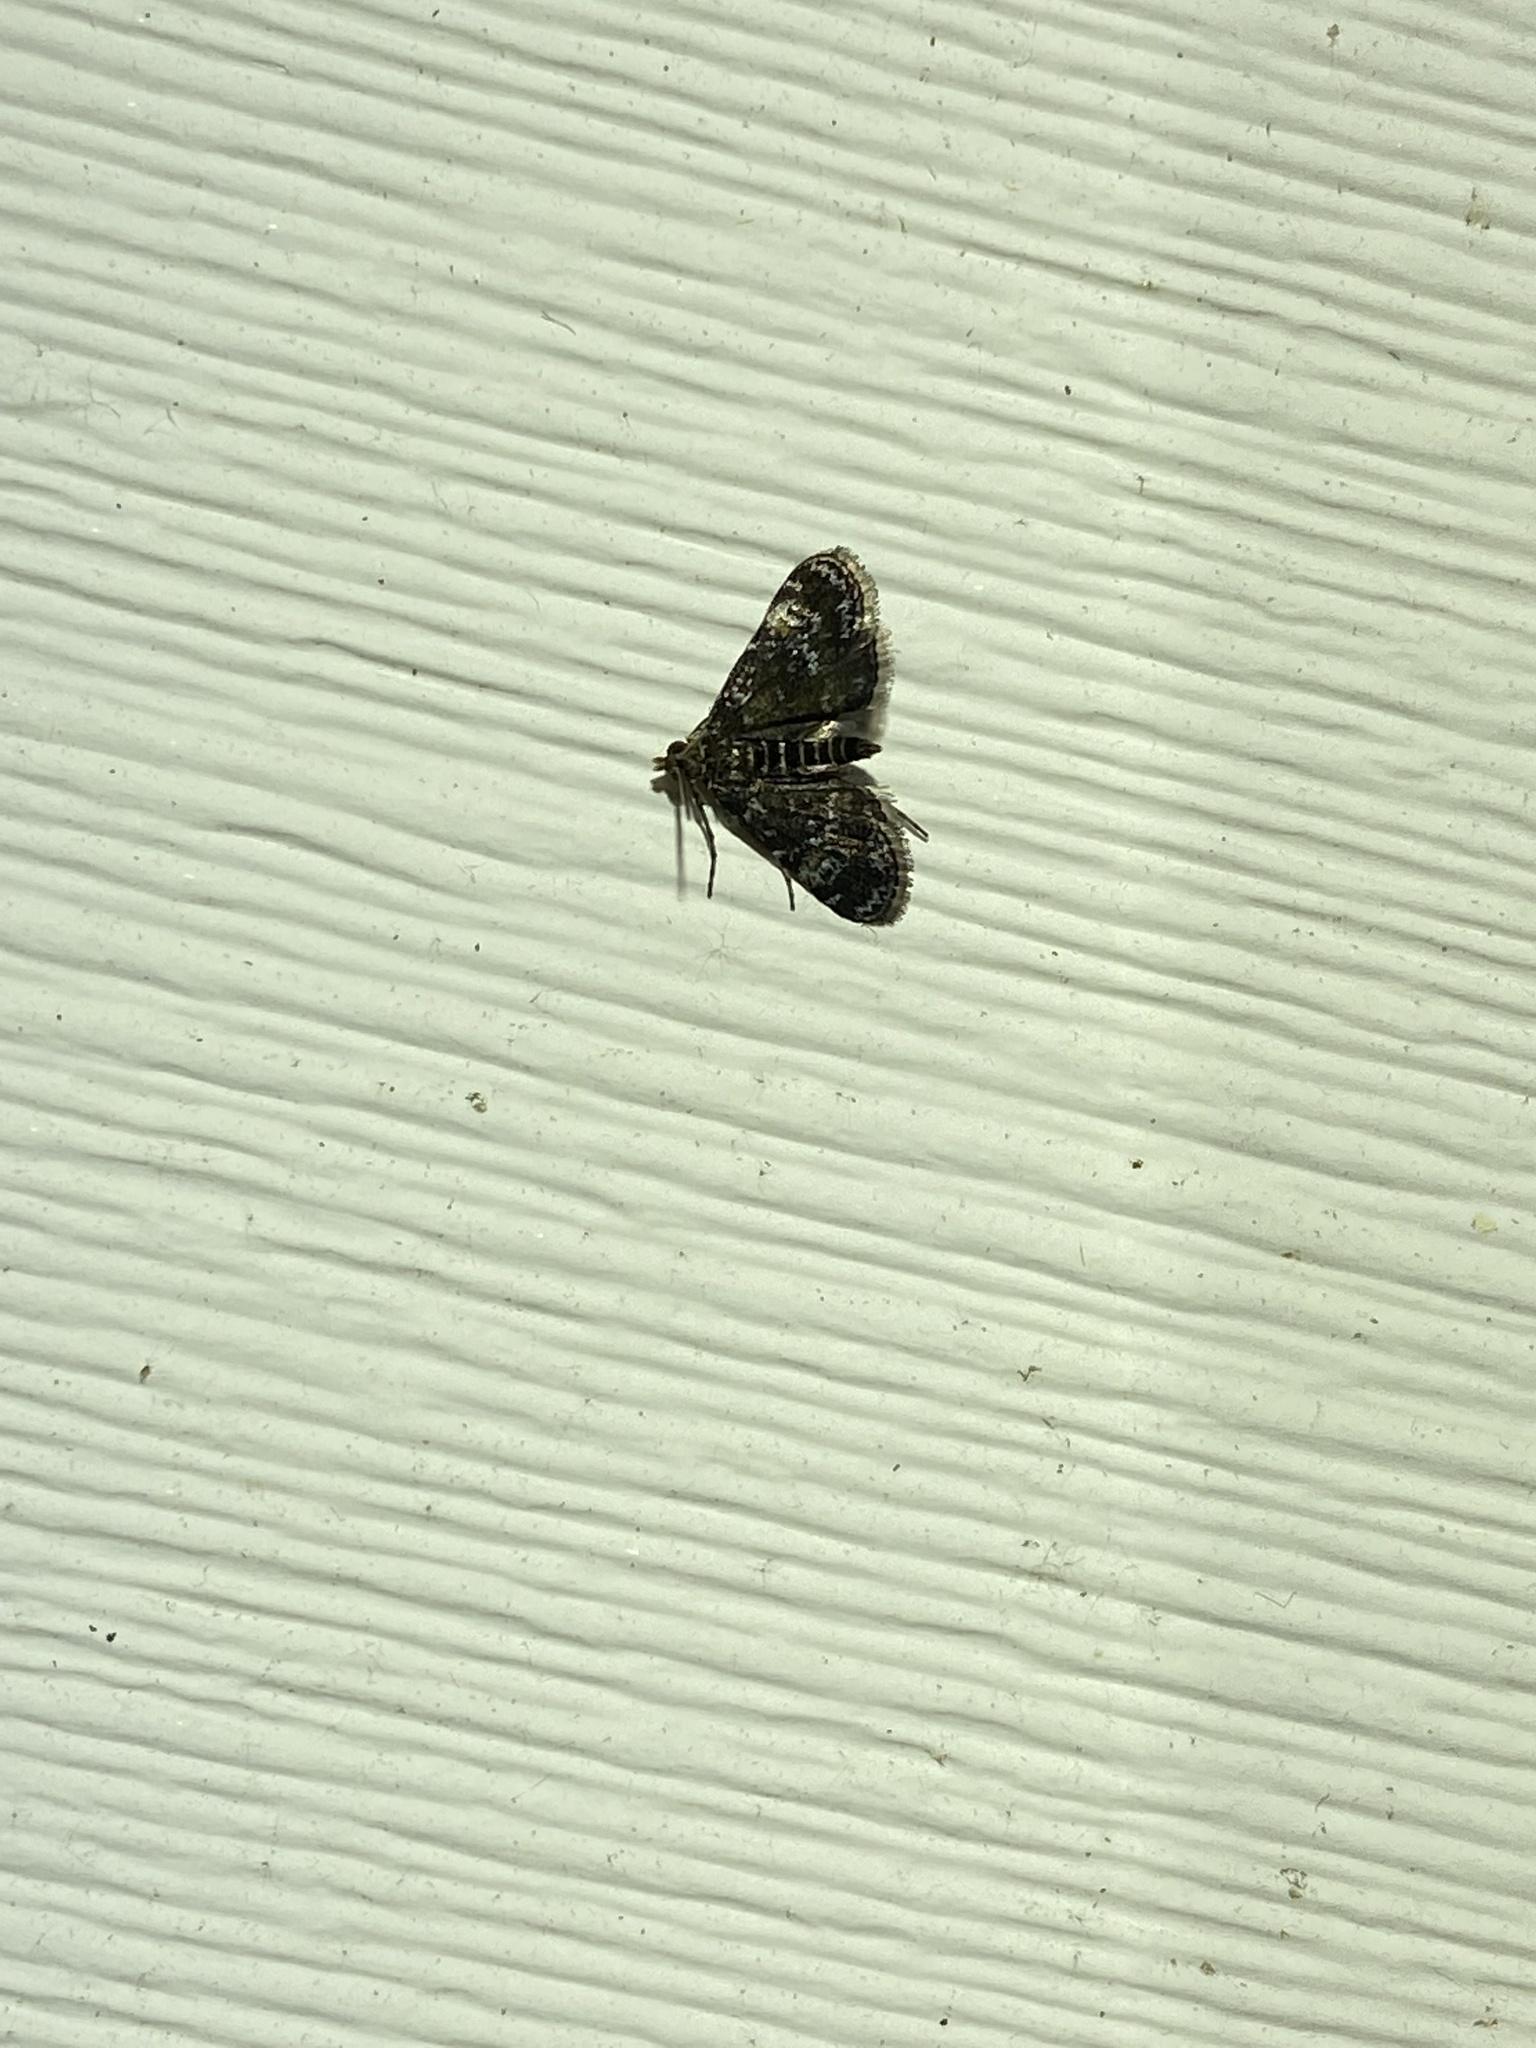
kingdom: Animalia
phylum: Arthropoda
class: Insecta
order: Lepidoptera
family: Crambidae
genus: Elophila
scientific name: Elophila obliteralis
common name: Waterlily leafcutter moth
